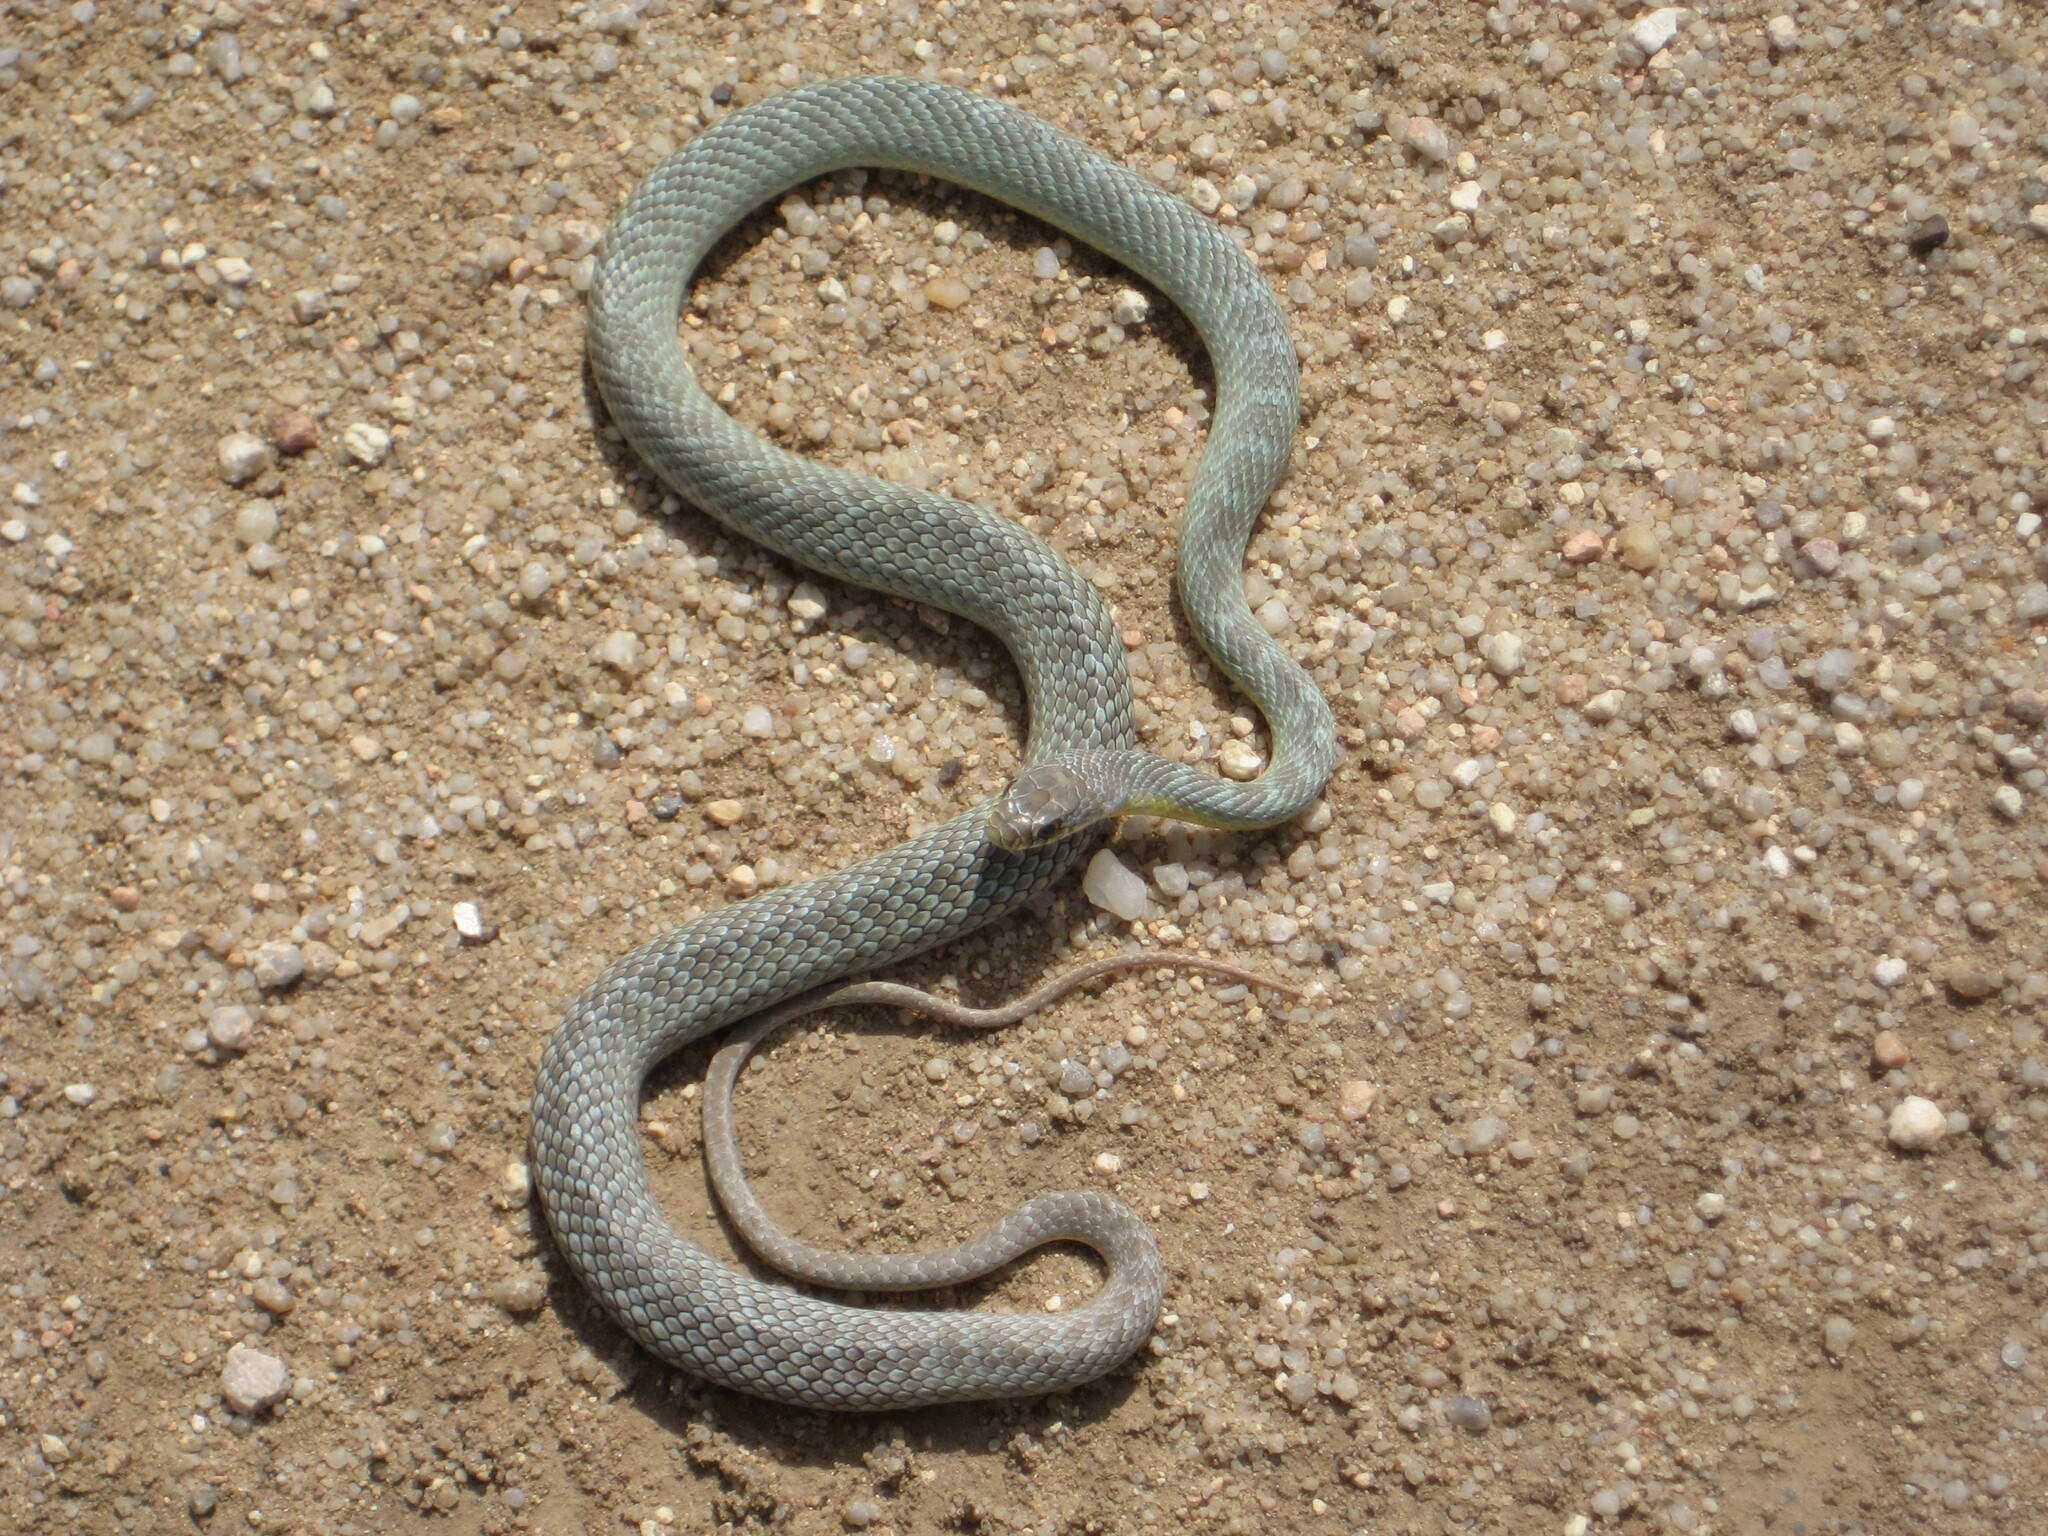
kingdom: Animalia
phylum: Chordata
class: Squamata
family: Colubridae
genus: Coluber
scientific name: Coluber constrictor
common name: Eastern racer
